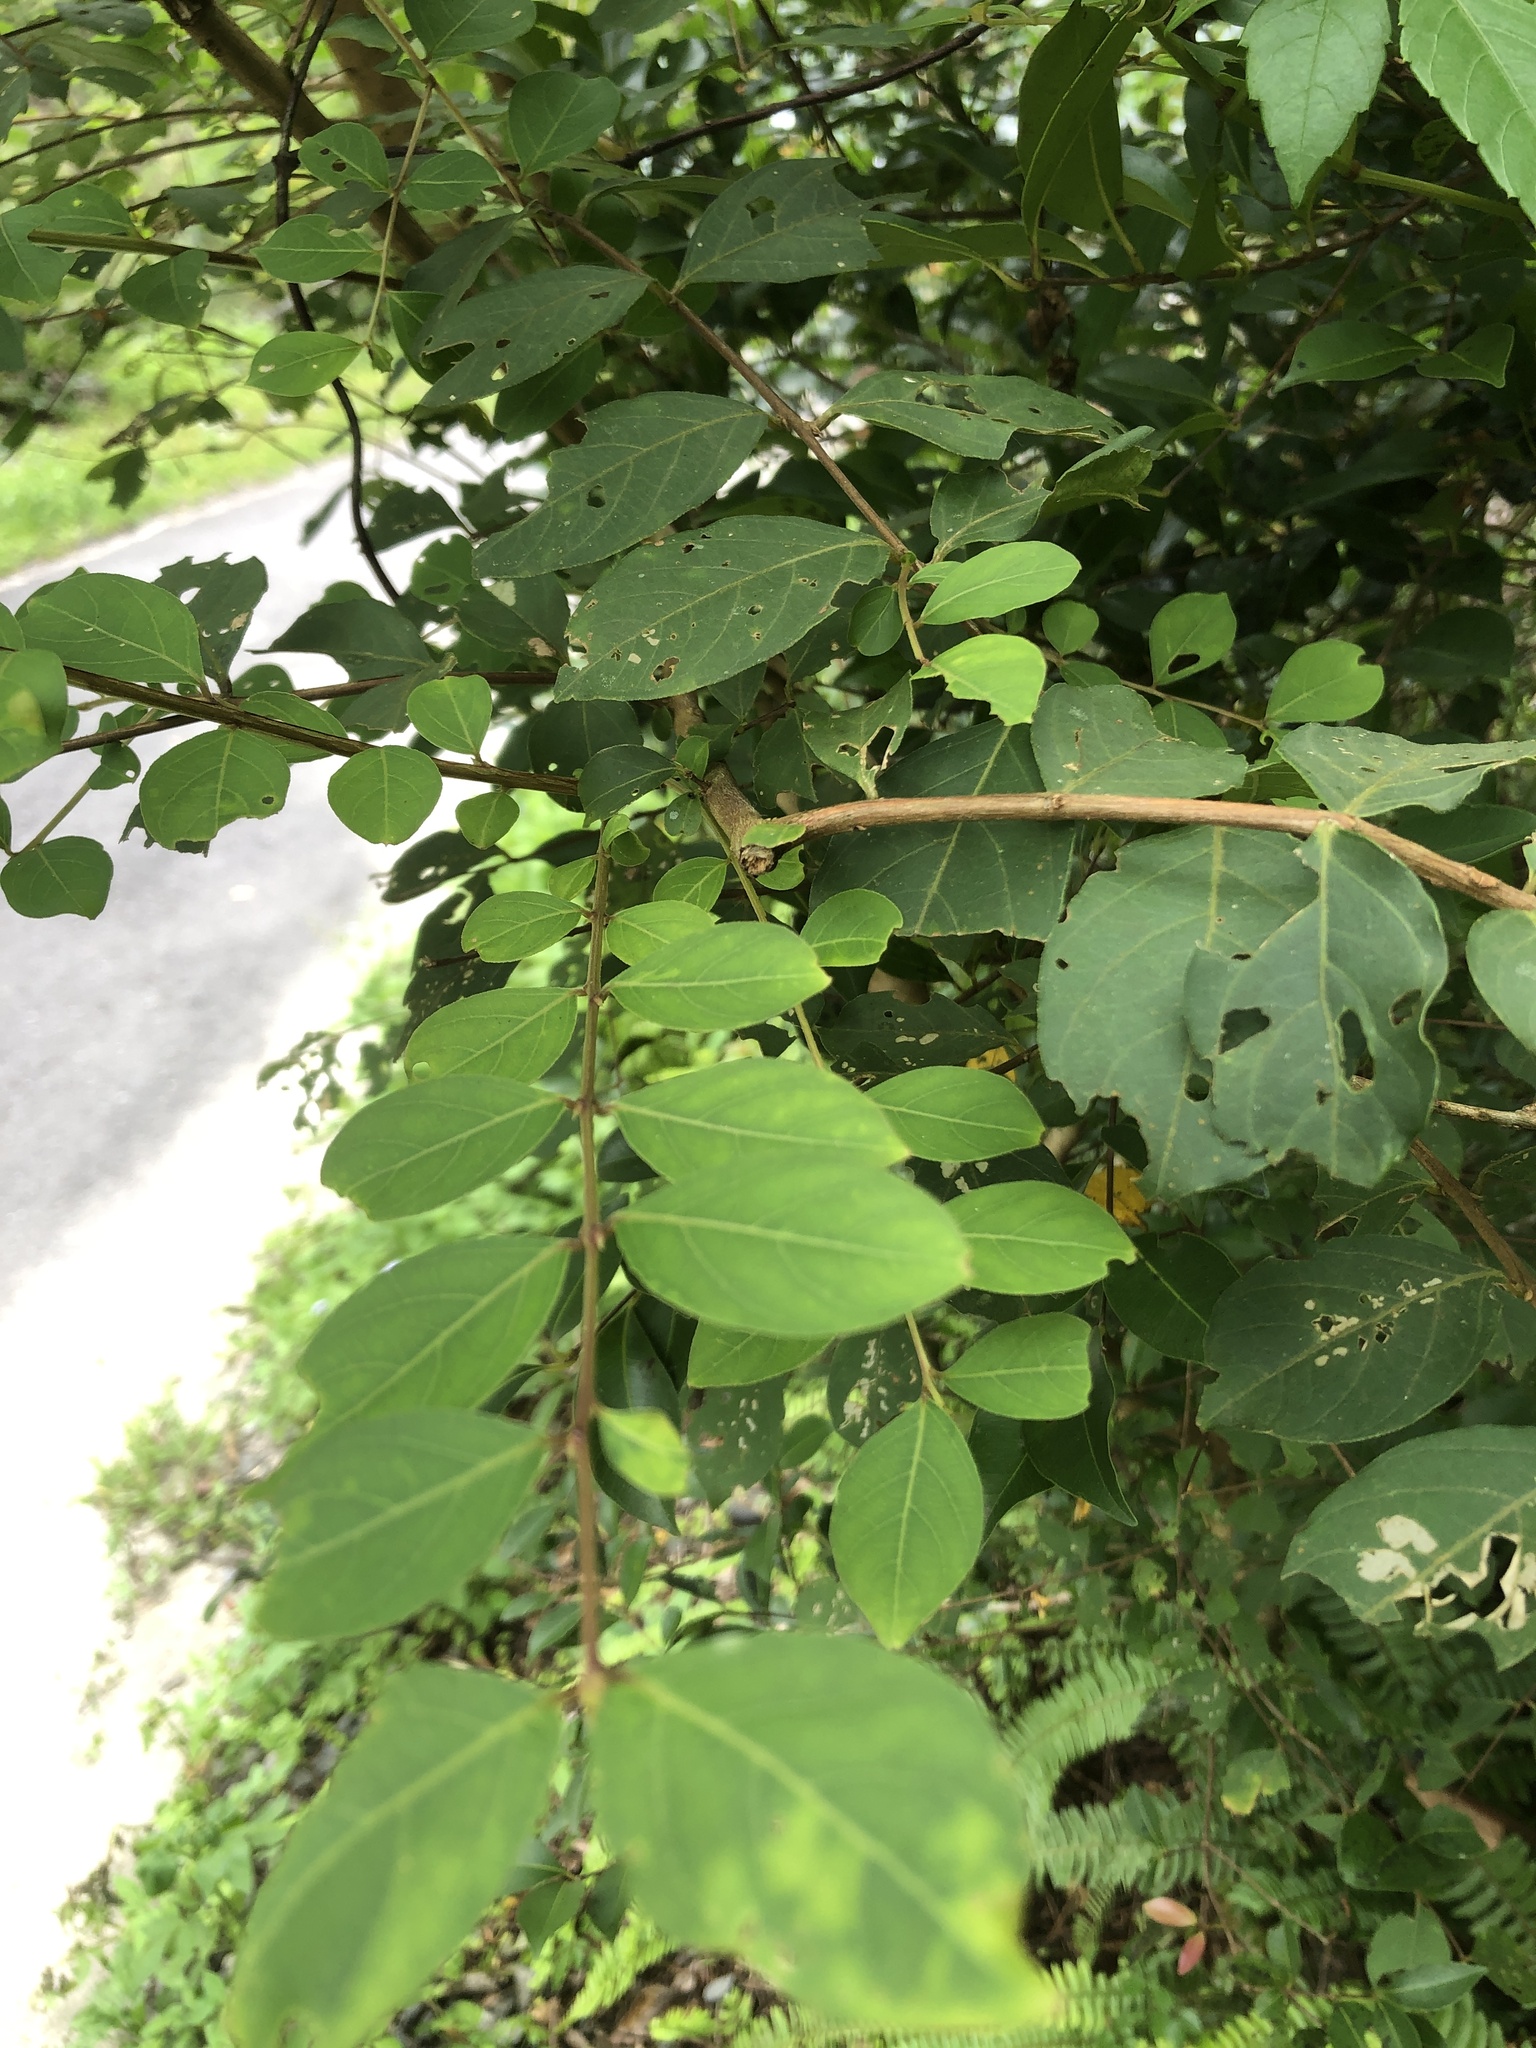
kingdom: Plantae
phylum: Tracheophyta
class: Magnoliopsida
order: Myrtales
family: Lythraceae
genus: Lagerstroemia
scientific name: Lagerstroemia subcostata
